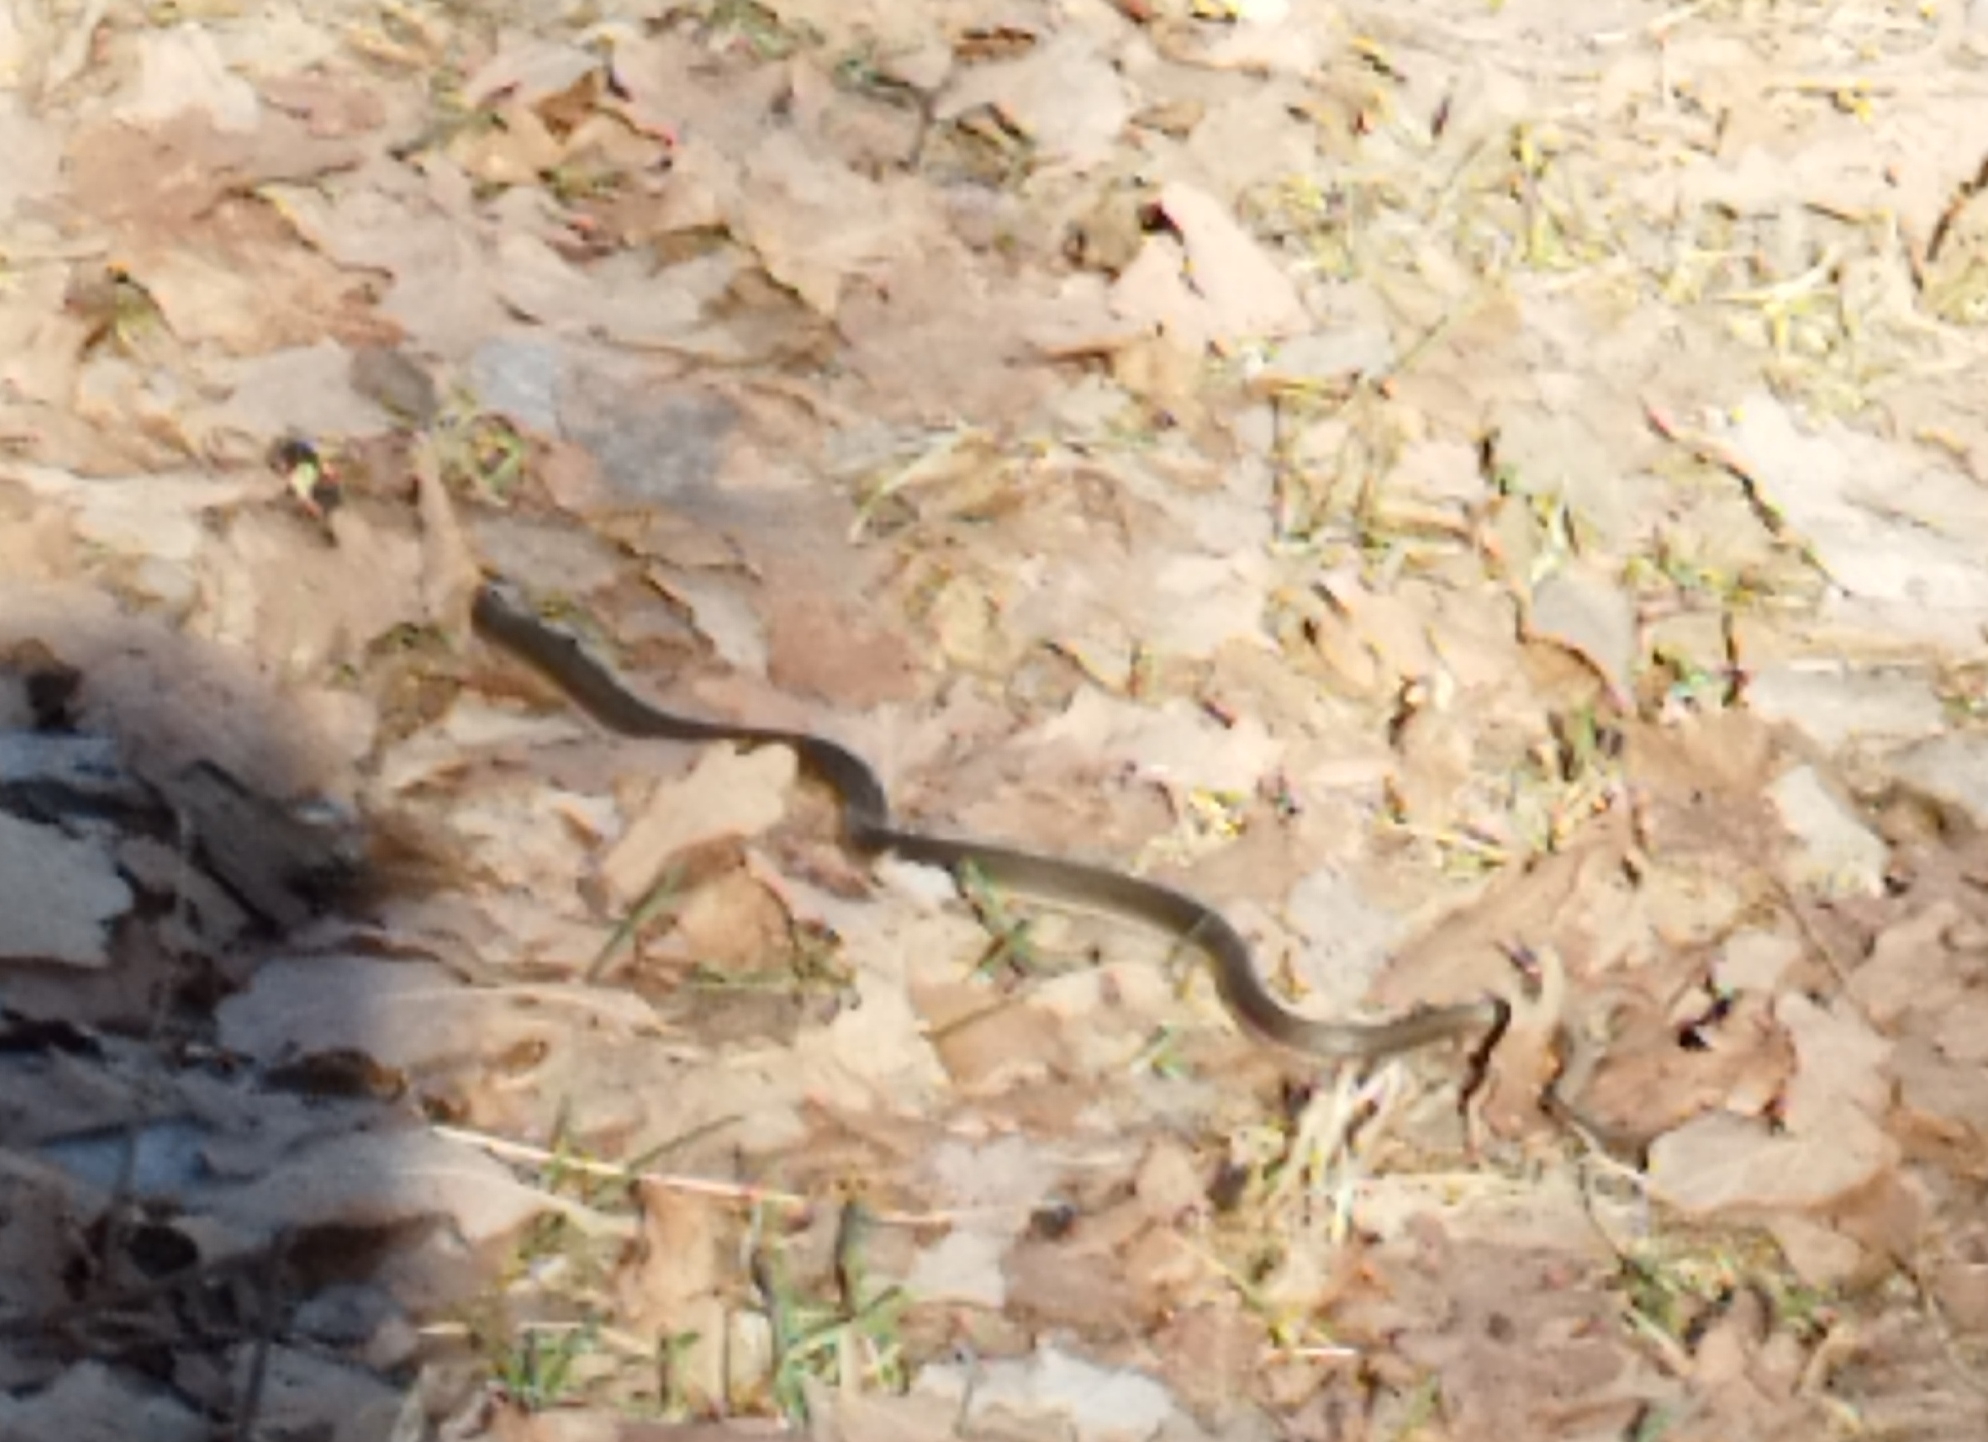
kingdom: Animalia
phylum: Chordata
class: Squamata
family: Colubridae
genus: Natrix
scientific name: Natrix natrix
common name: Grass snake
